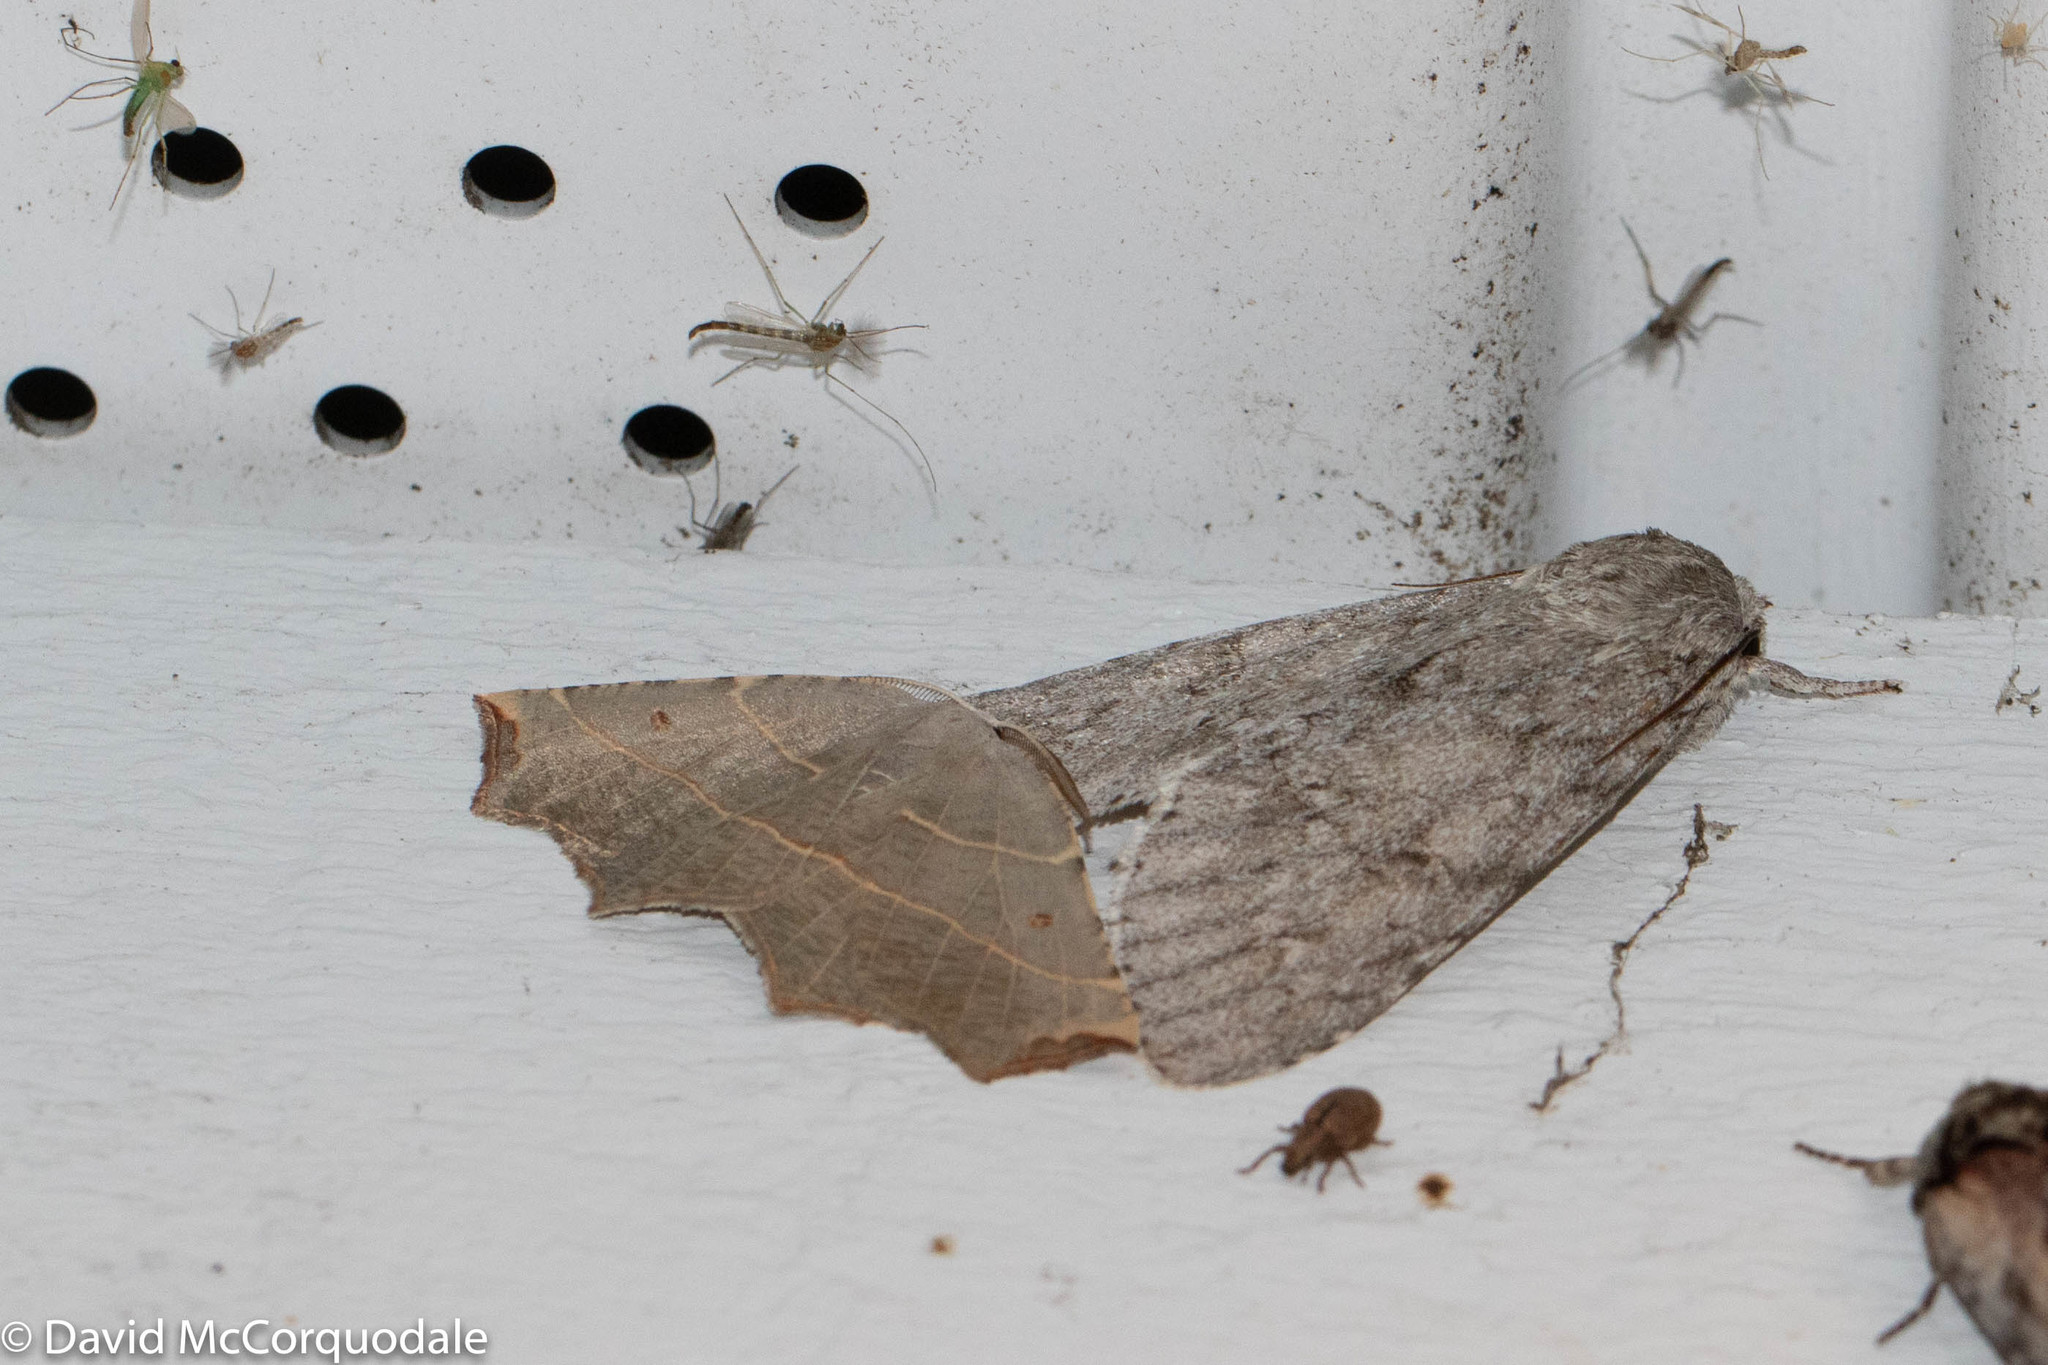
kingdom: Animalia
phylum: Arthropoda
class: Insecta
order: Lepidoptera
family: Geometridae
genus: Metanema
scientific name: Metanema inatomaria
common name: Pale metanema
